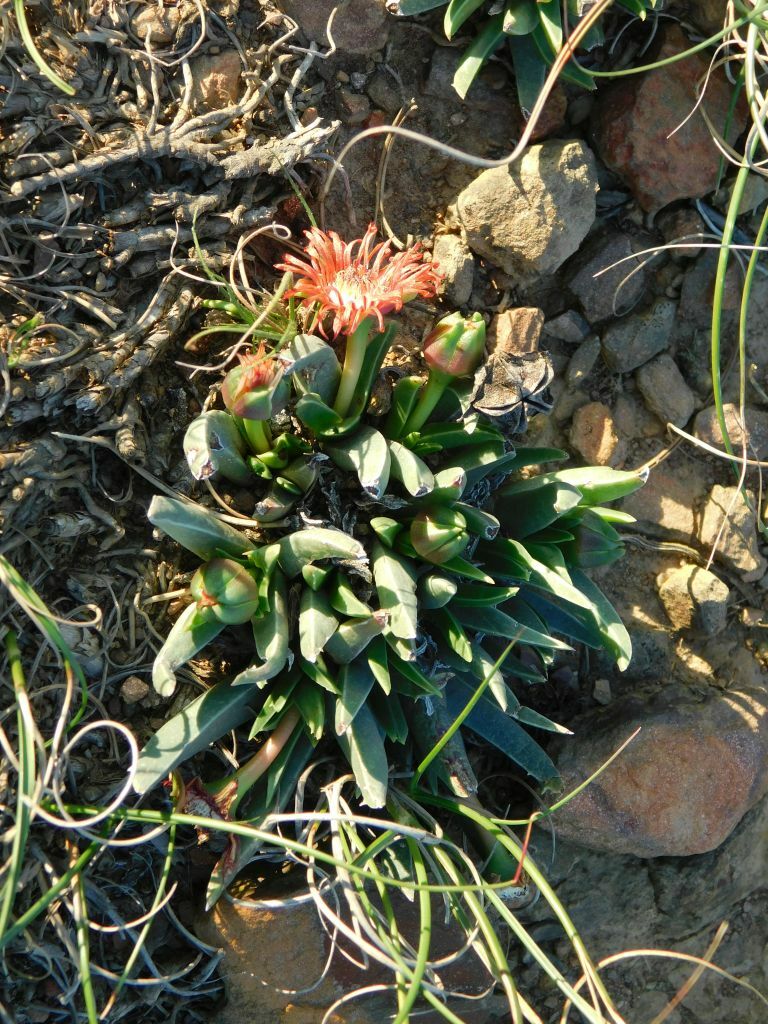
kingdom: Plantae
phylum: Tracheophyta
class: Magnoliopsida
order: Caryophyllales
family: Aizoaceae
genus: Acrodon
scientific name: Acrodon subulatus
